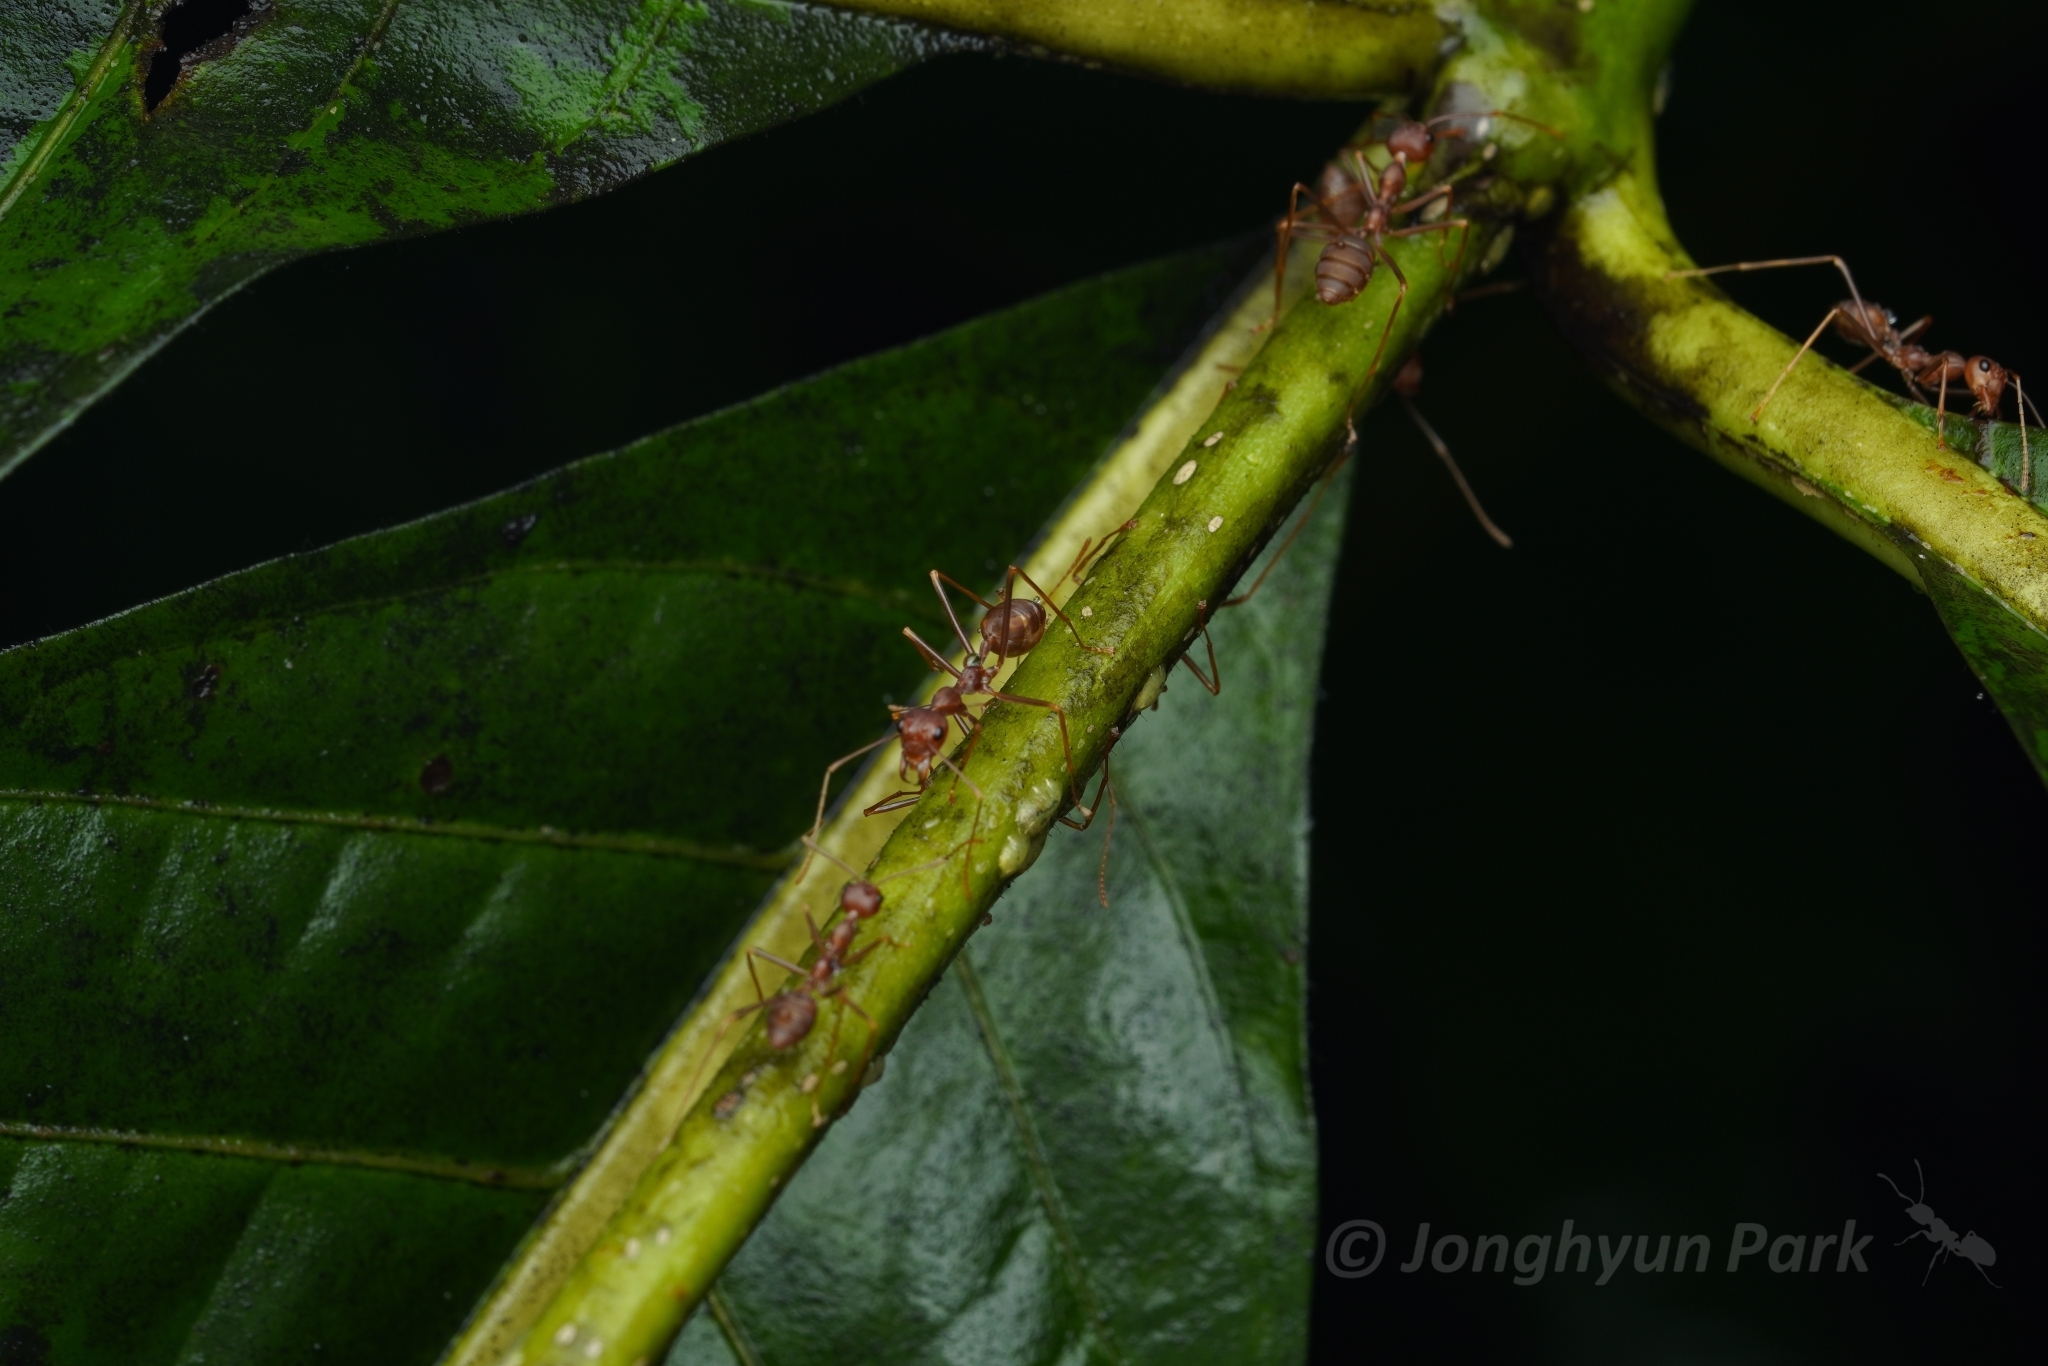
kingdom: Animalia
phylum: Arthropoda
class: Insecta
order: Hymenoptera
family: Formicidae
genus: Oecophylla
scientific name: Oecophylla smaragdina
